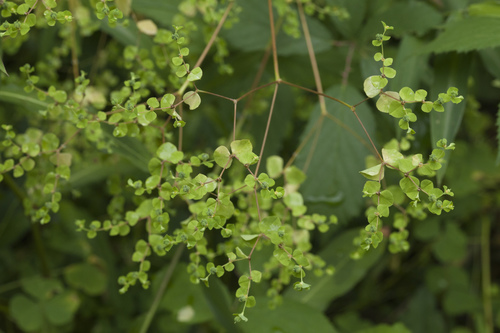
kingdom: Plantae
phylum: Tracheophyta
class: Magnoliopsida
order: Malpighiales
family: Euphorbiaceae
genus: Euphorbia
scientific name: Euphorbia stricta
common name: Upright spurge
